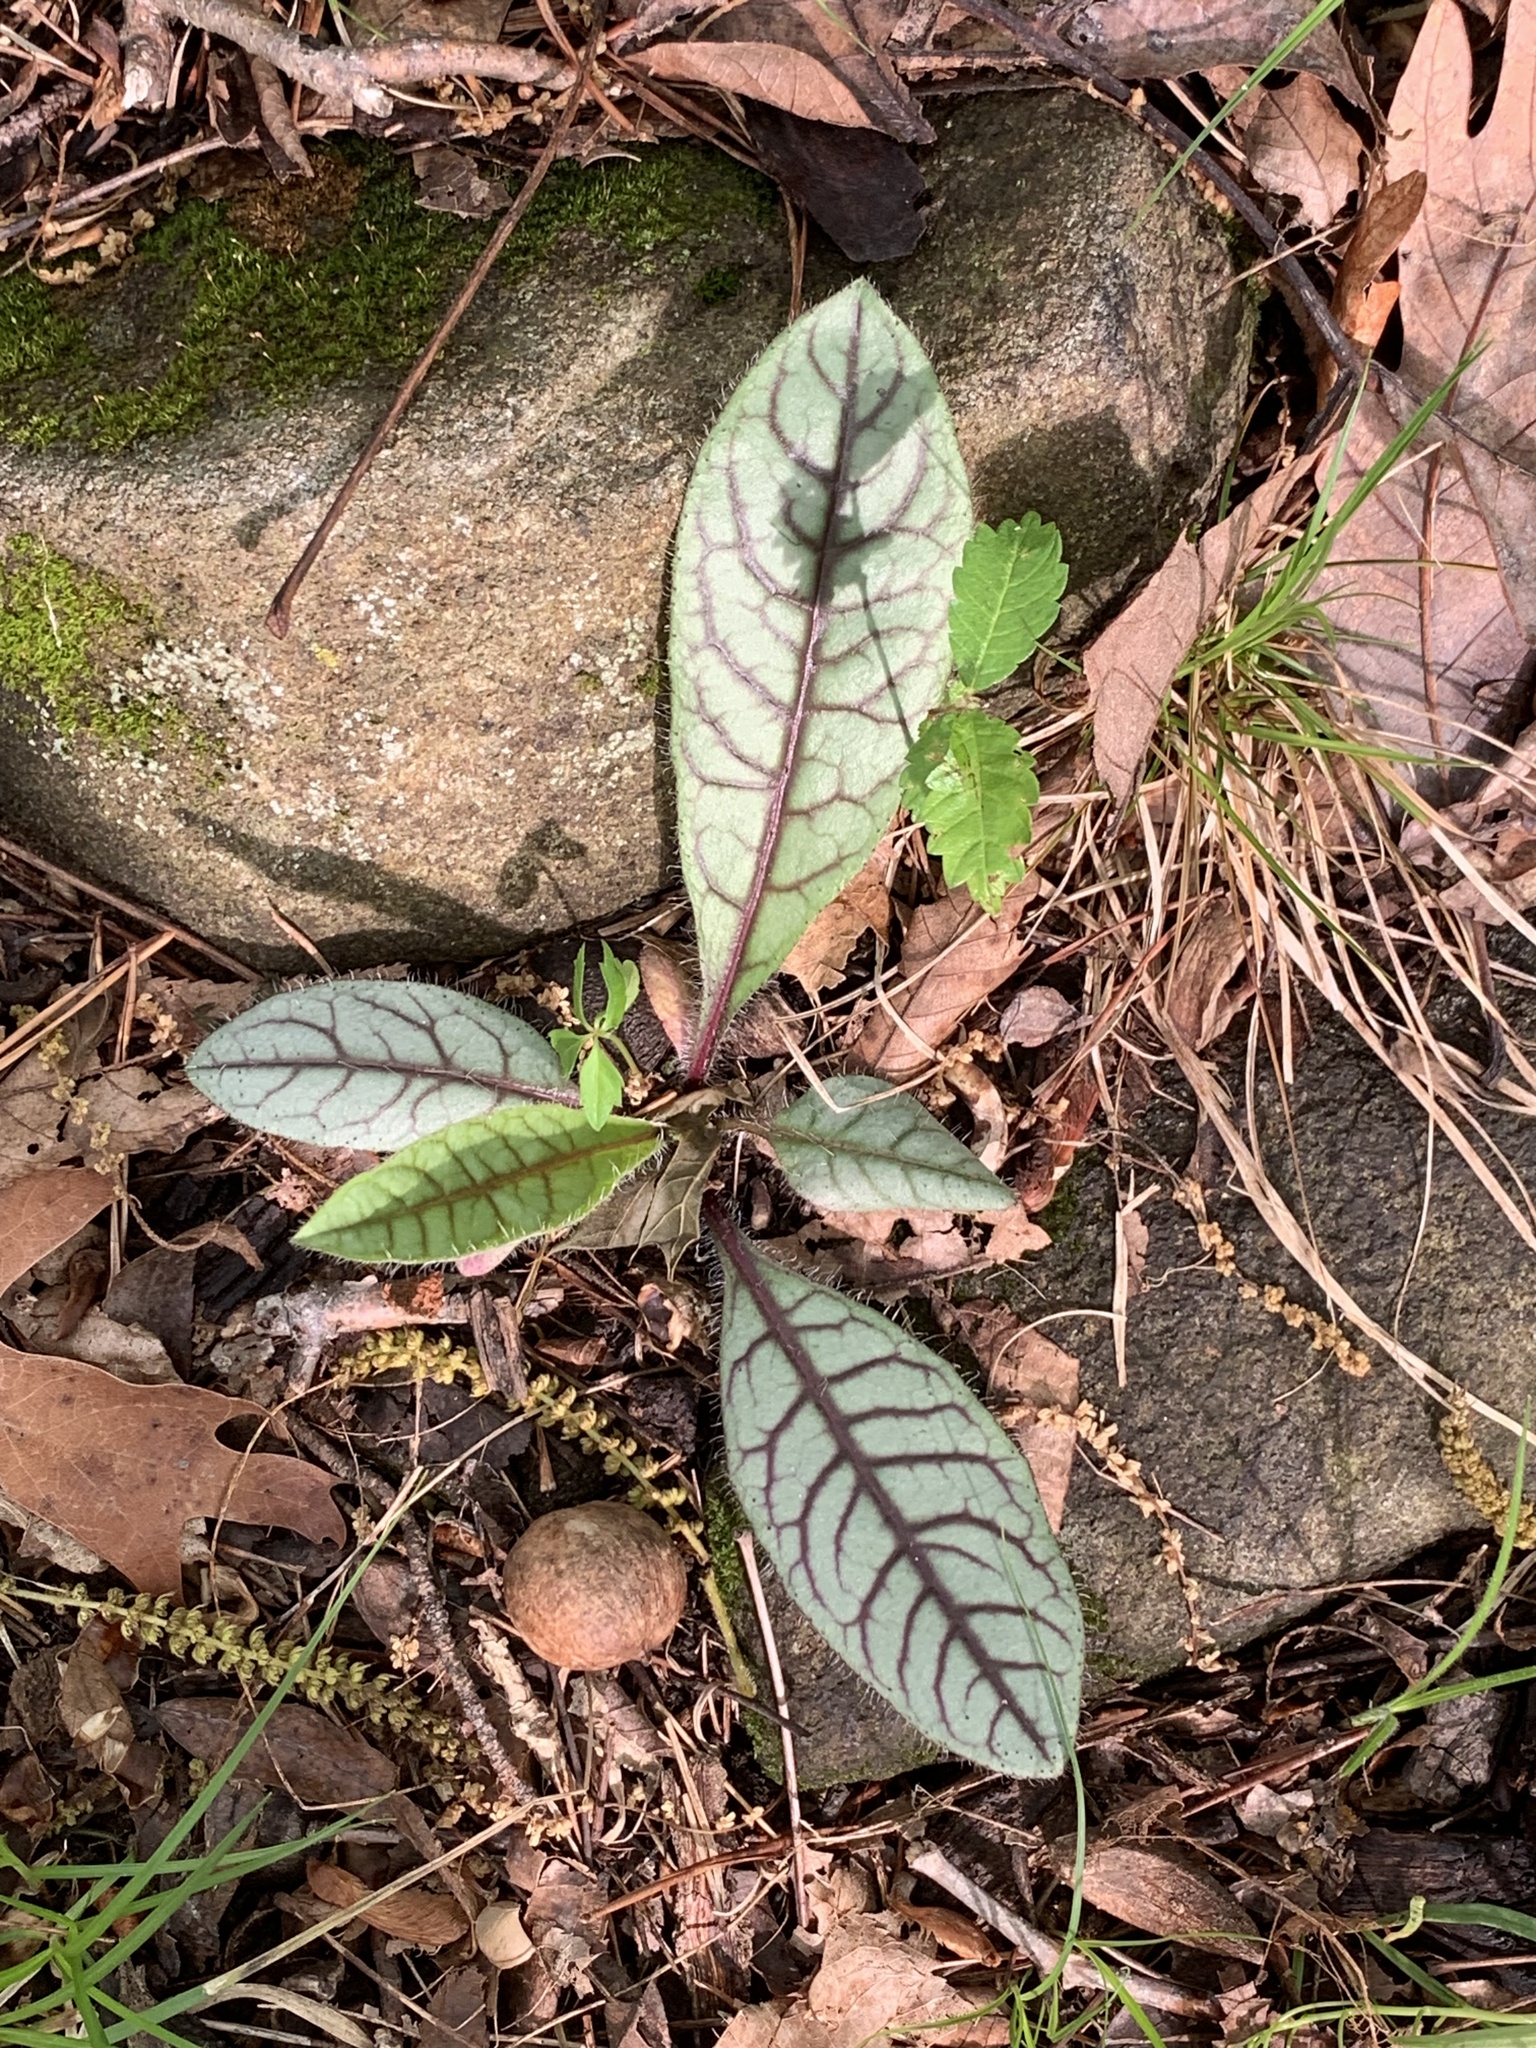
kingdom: Plantae
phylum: Tracheophyta
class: Magnoliopsida
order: Asterales
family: Asteraceae
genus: Hieracium
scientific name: Hieracium venosum
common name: Rattlesnake hawkweed
